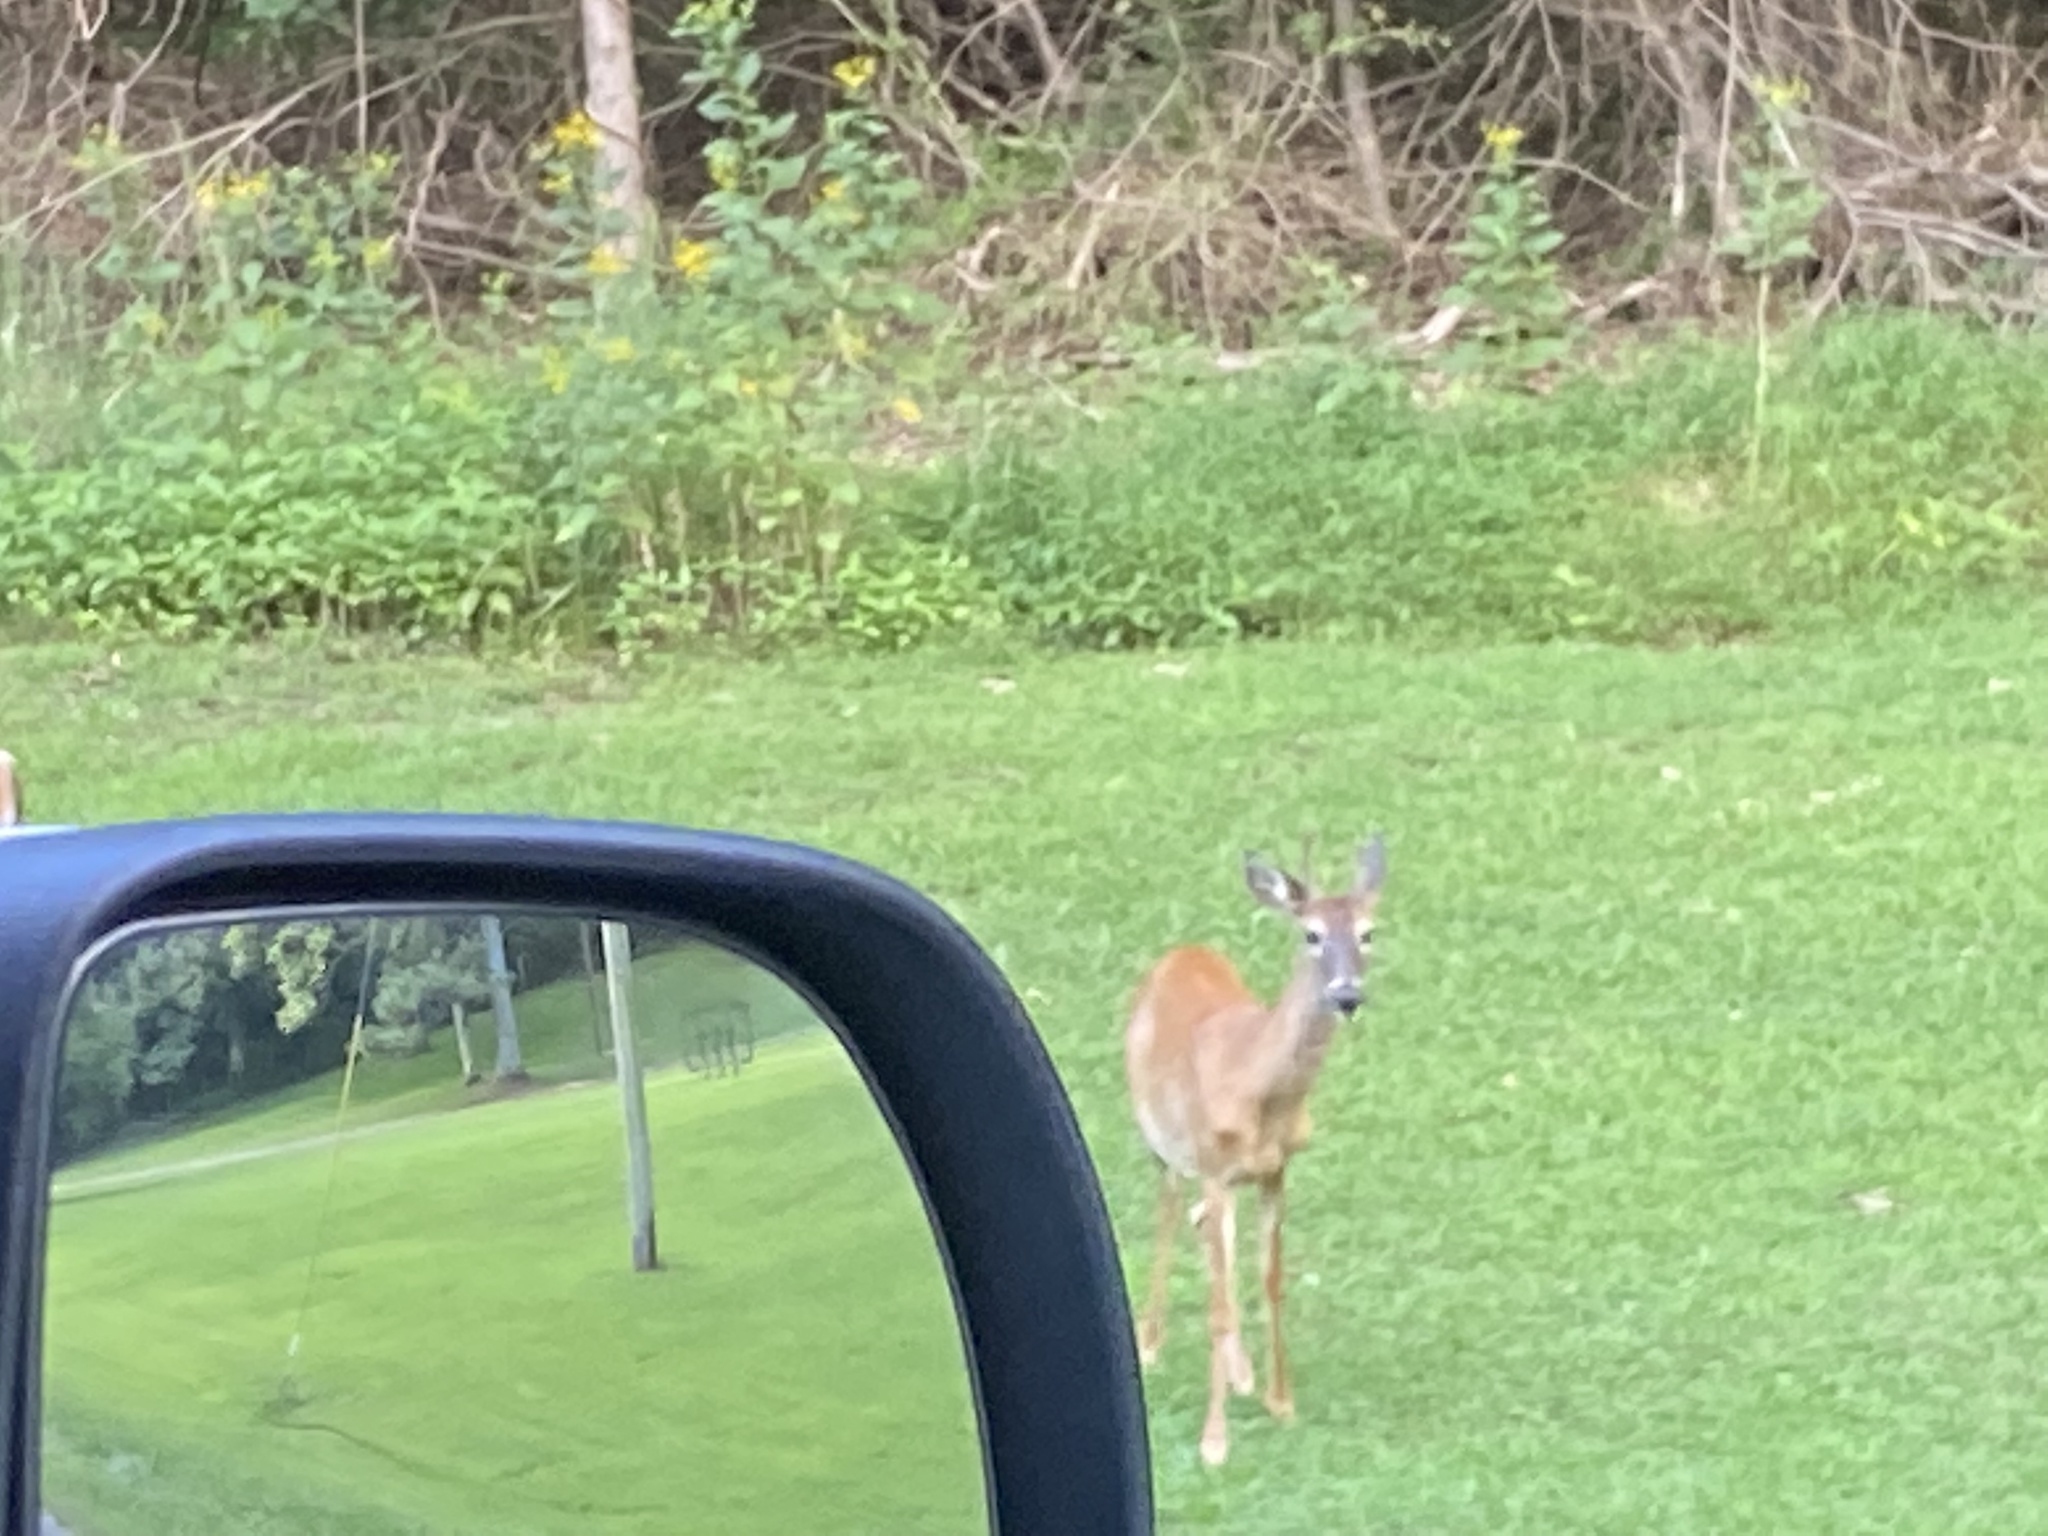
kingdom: Animalia
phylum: Chordata
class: Mammalia
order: Artiodactyla
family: Cervidae
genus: Odocoileus
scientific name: Odocoileus virginianus
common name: White-tailed deer
